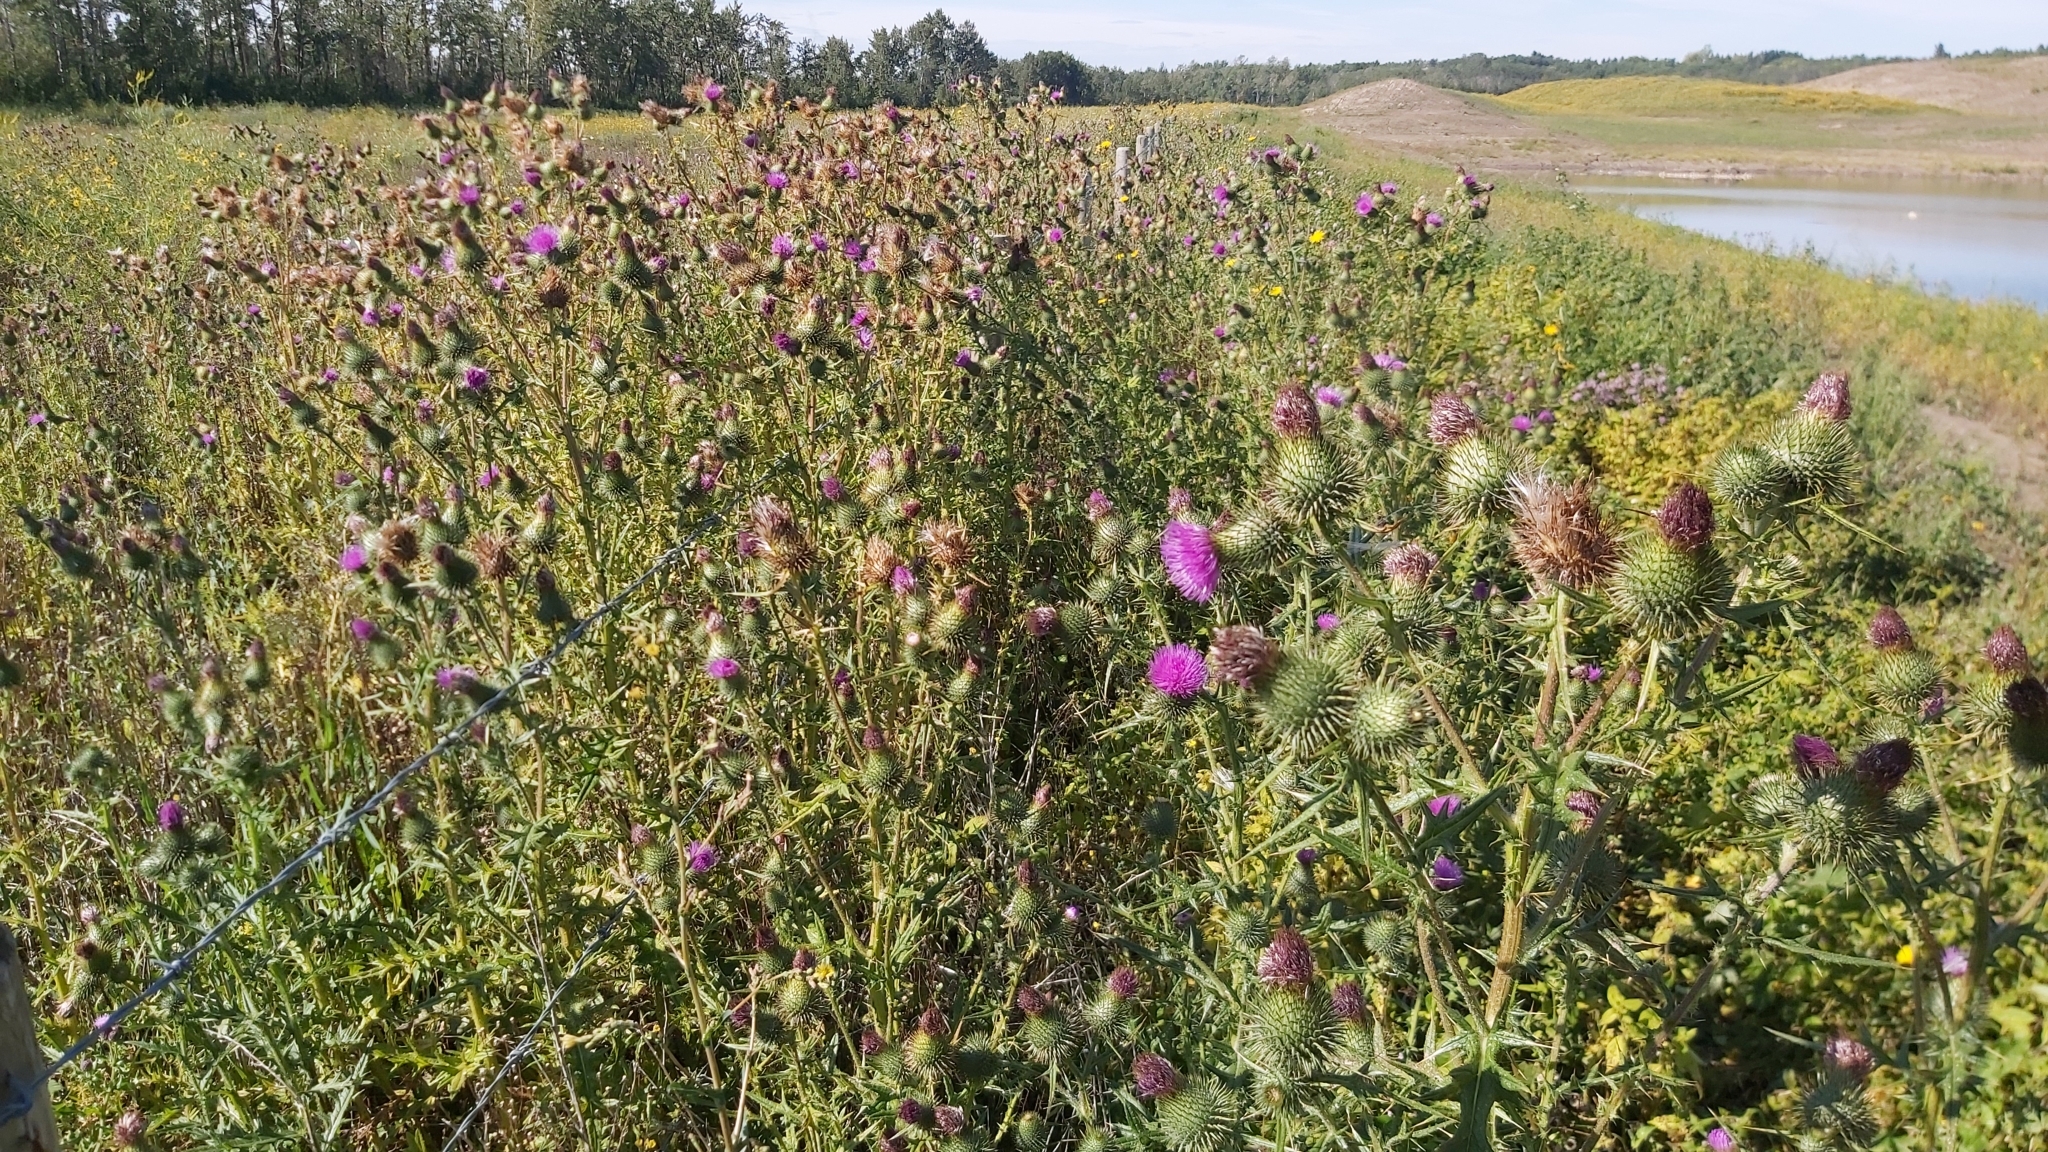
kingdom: Plantae
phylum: Tracheophyta
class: Magnoliopsida
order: Asterales
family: Asteraceae
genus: Cirsium
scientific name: Cirsium vulgare
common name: Bull thistle
